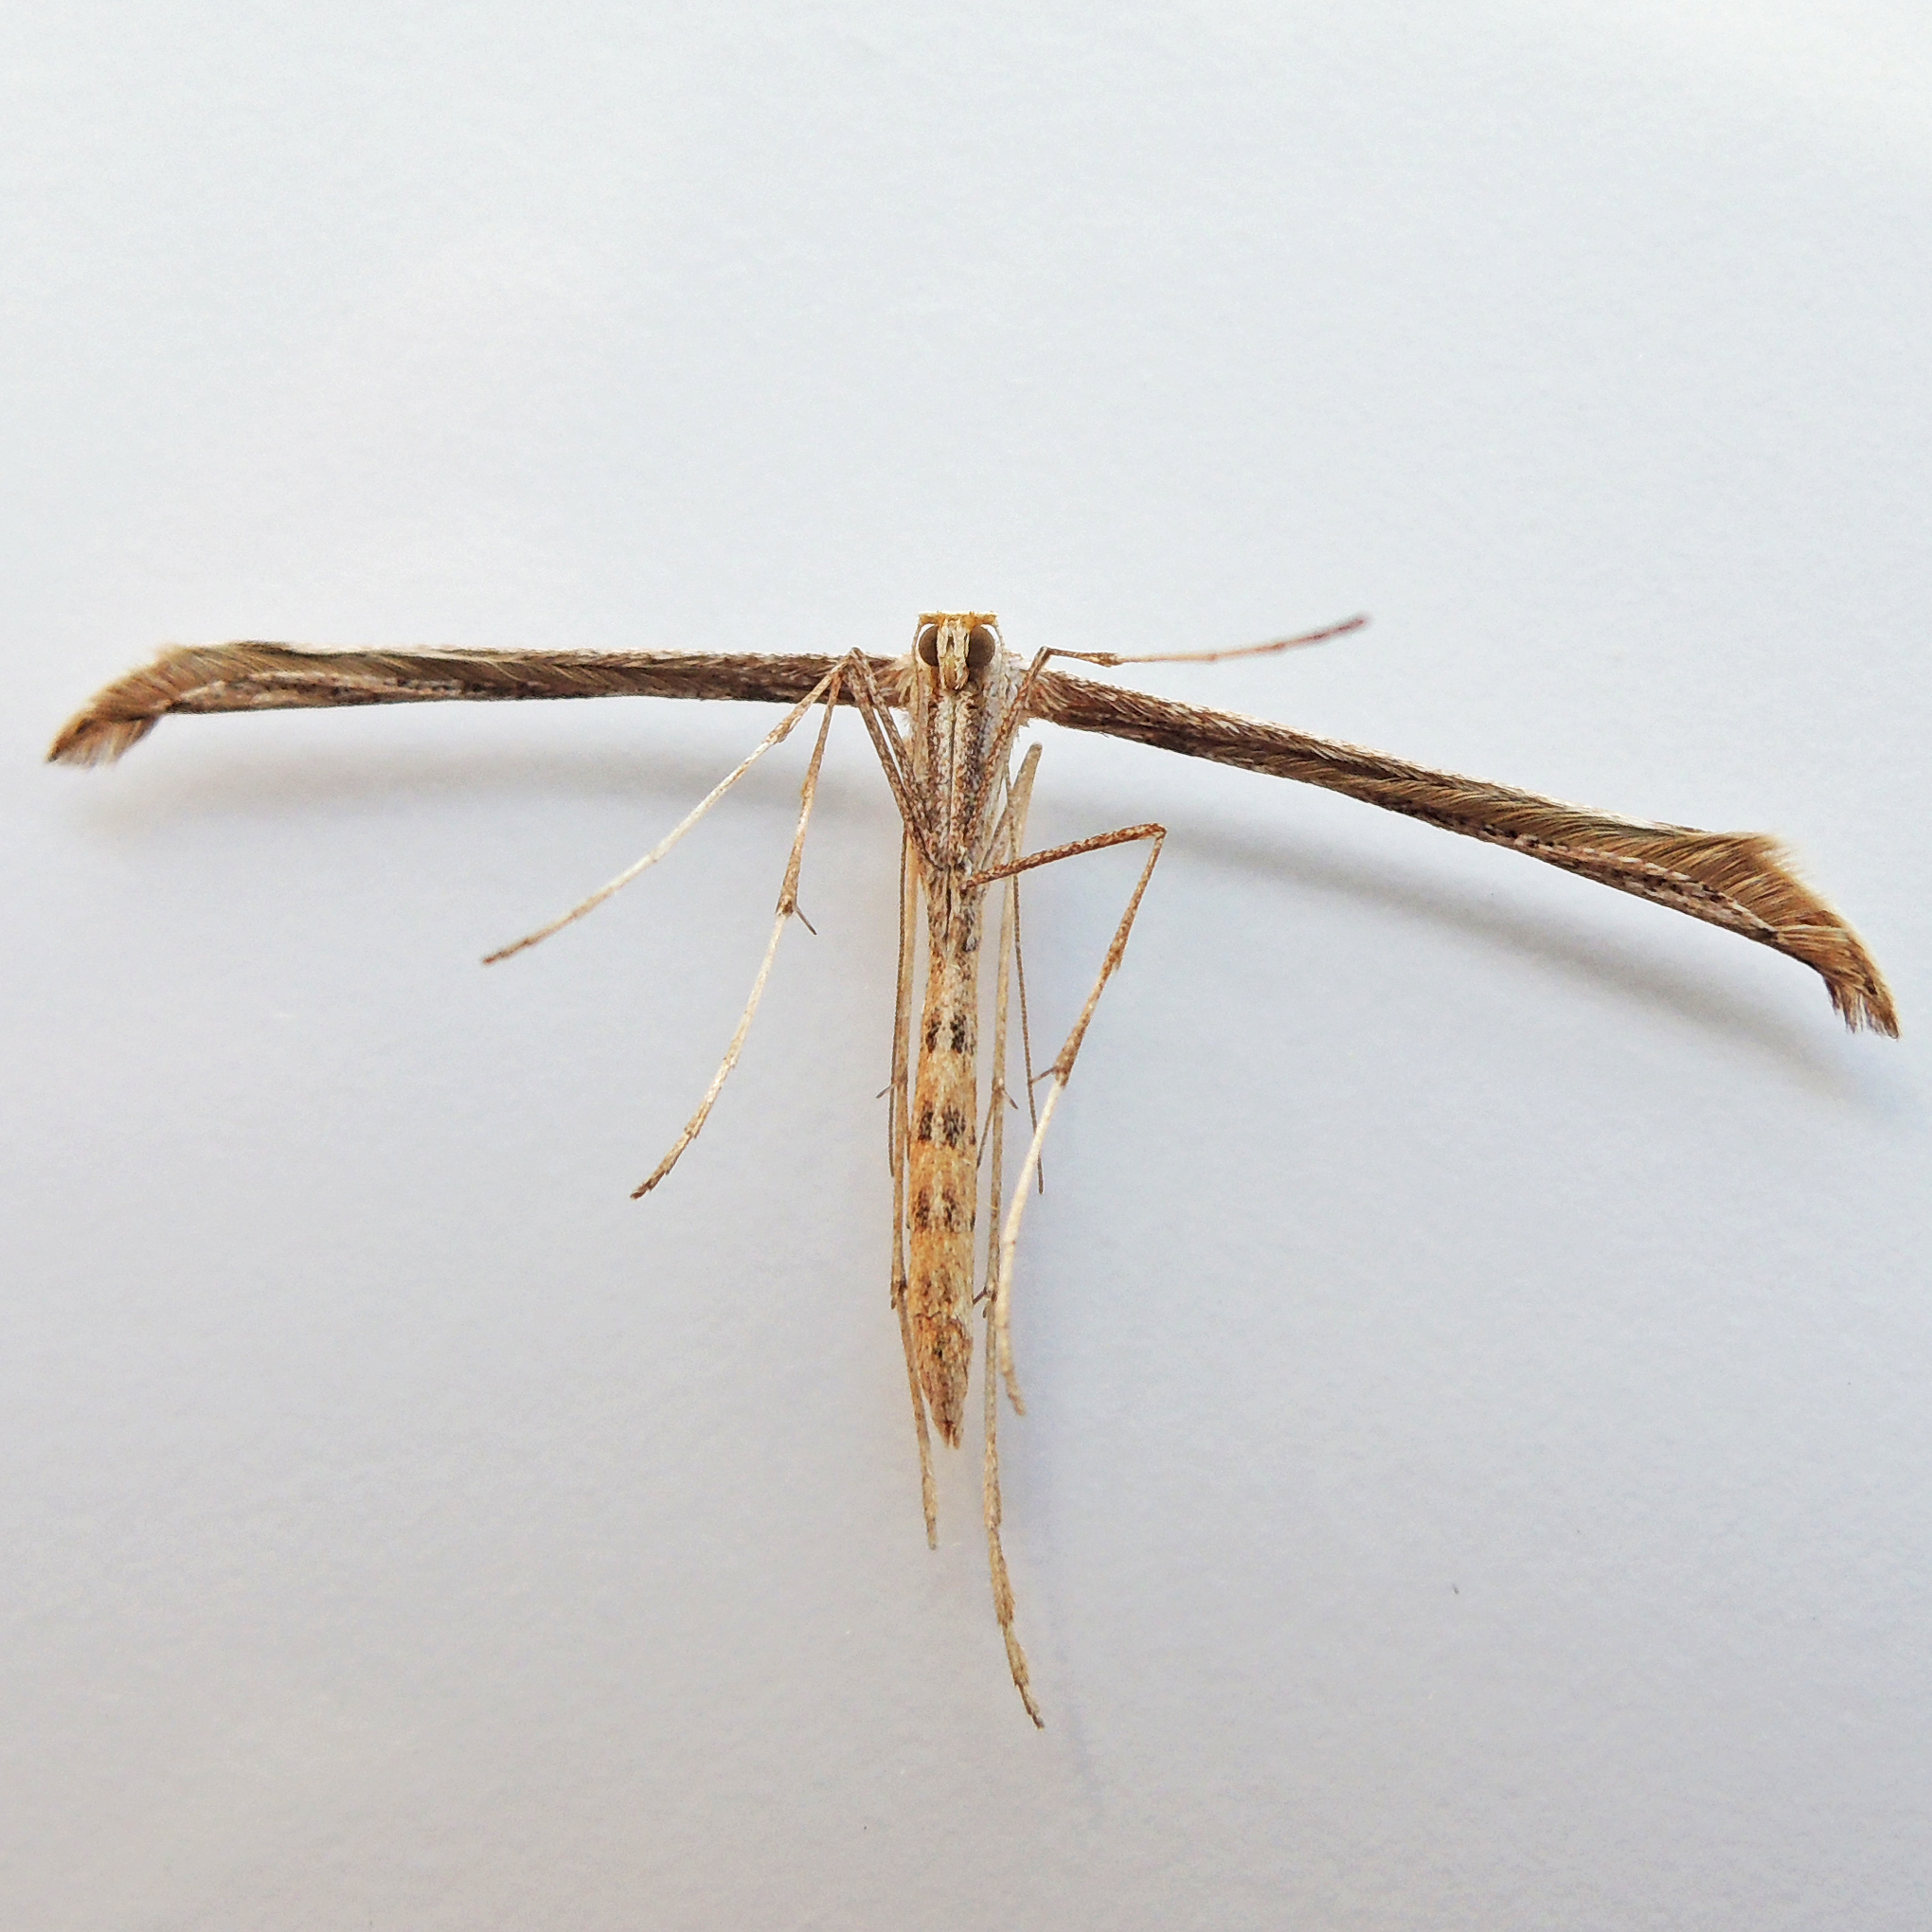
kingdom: Animalia
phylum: Arthropoda
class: Insecta
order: Lepidoptera
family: Pterophoridae
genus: Emmelina
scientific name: Emmelina monodactyla
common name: Common plume
